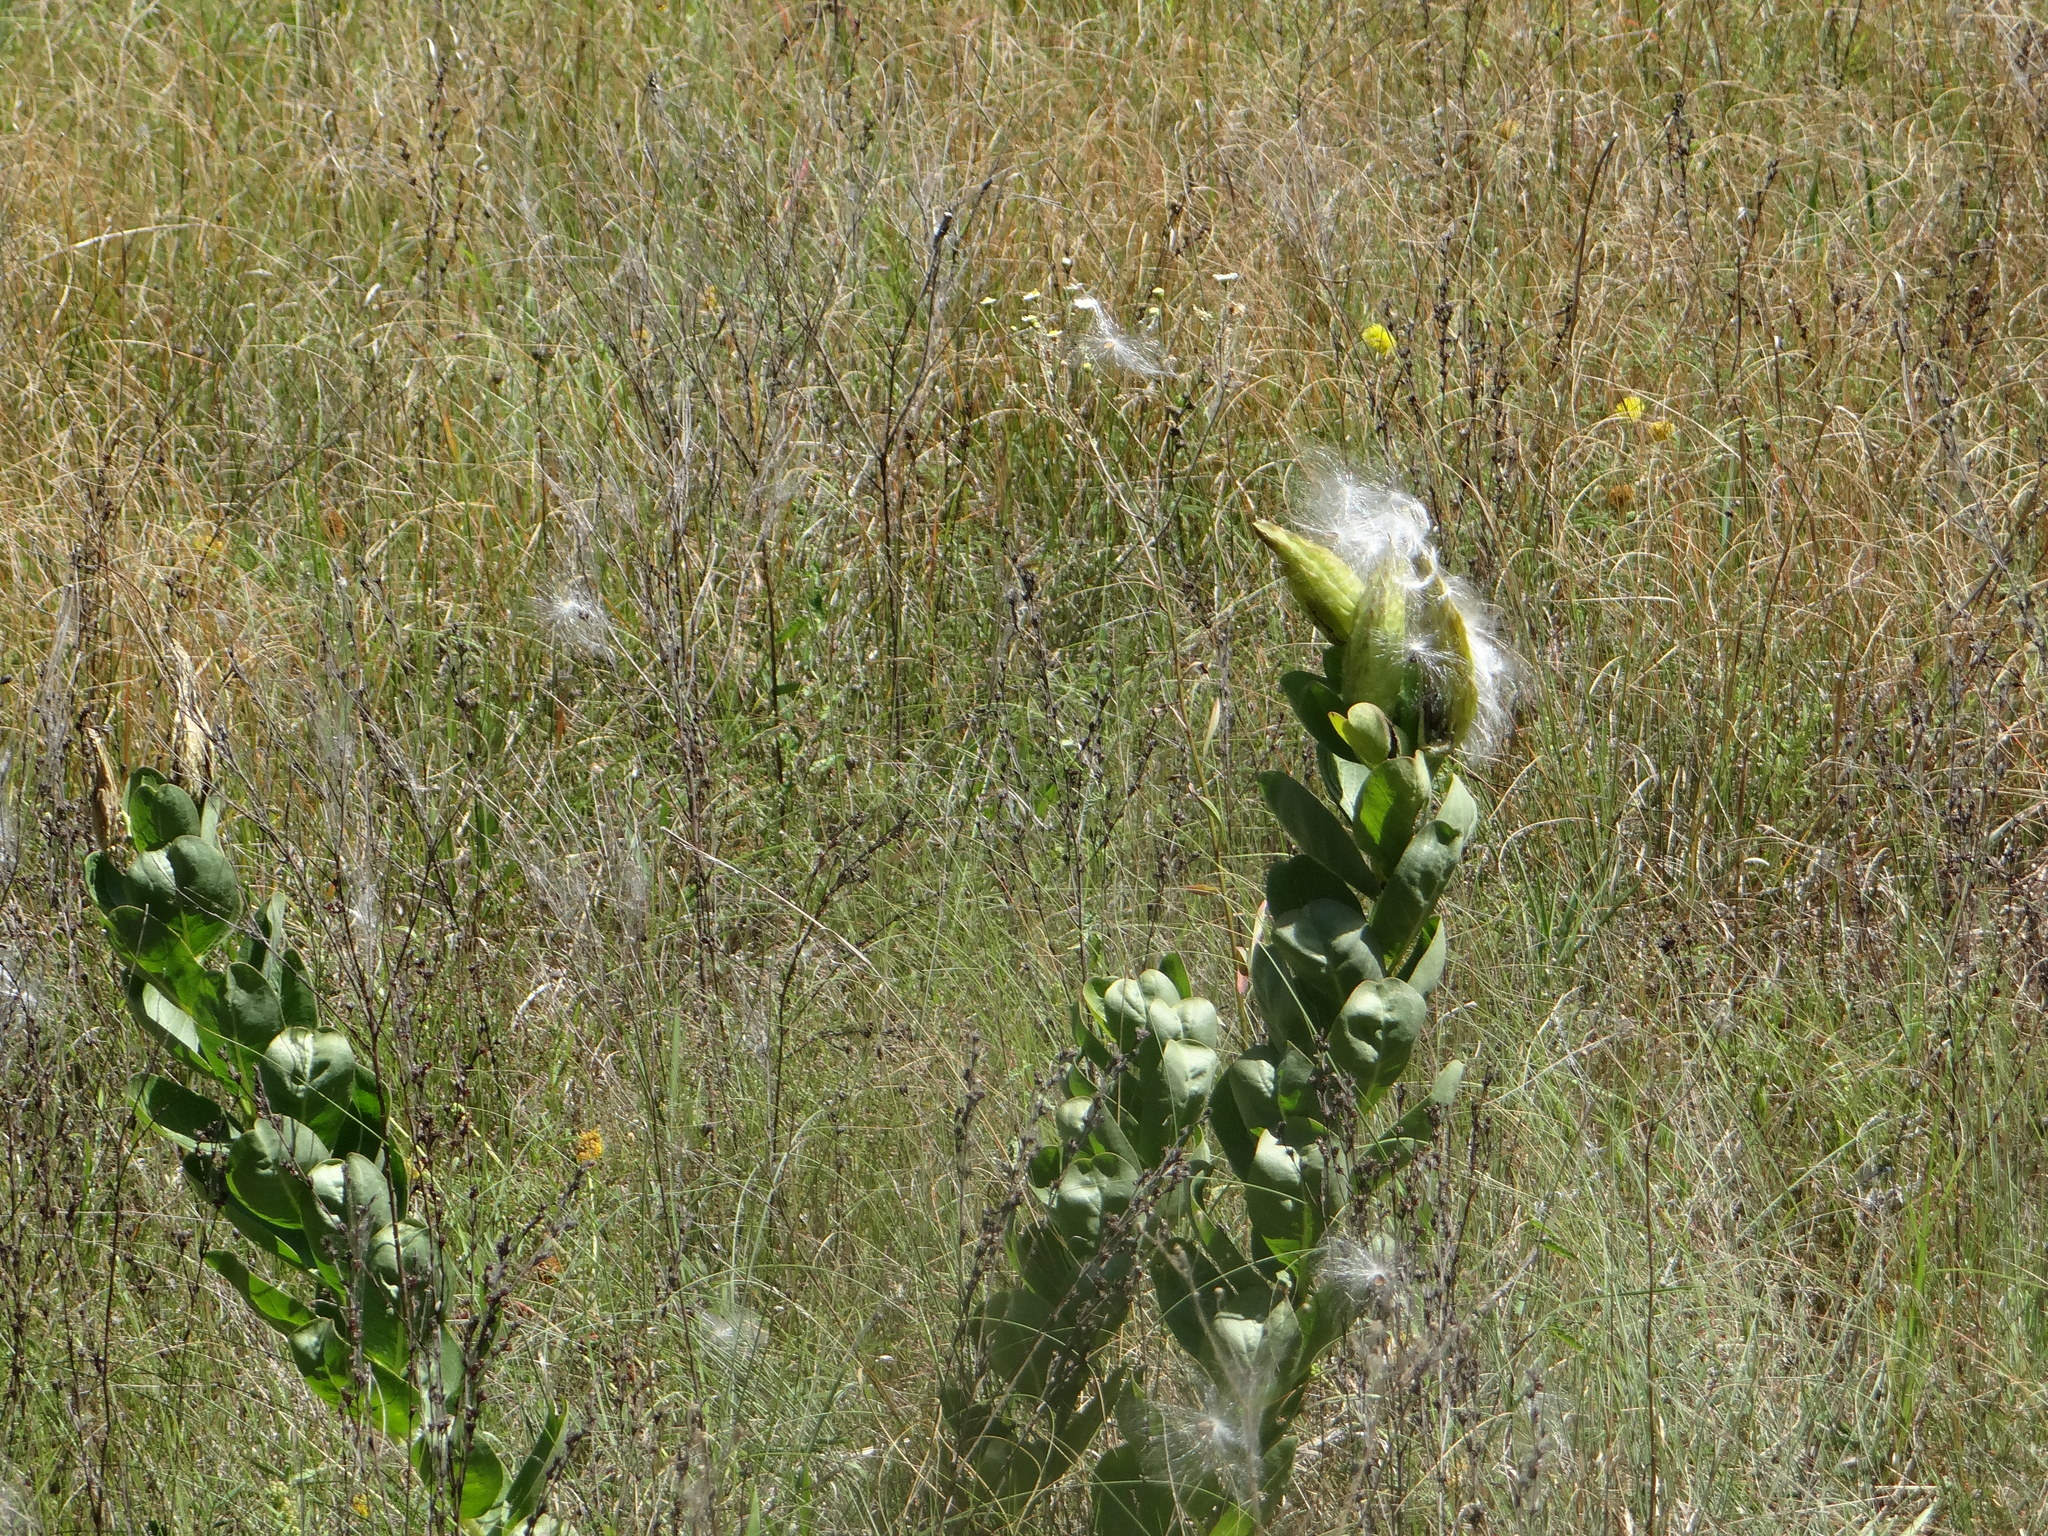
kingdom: Plantae
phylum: Tracheophyta
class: Magnoliopsida
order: Gentianales
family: Apocynaceae
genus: Asclepias
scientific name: Asclepias viridis
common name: Antelope-horns
